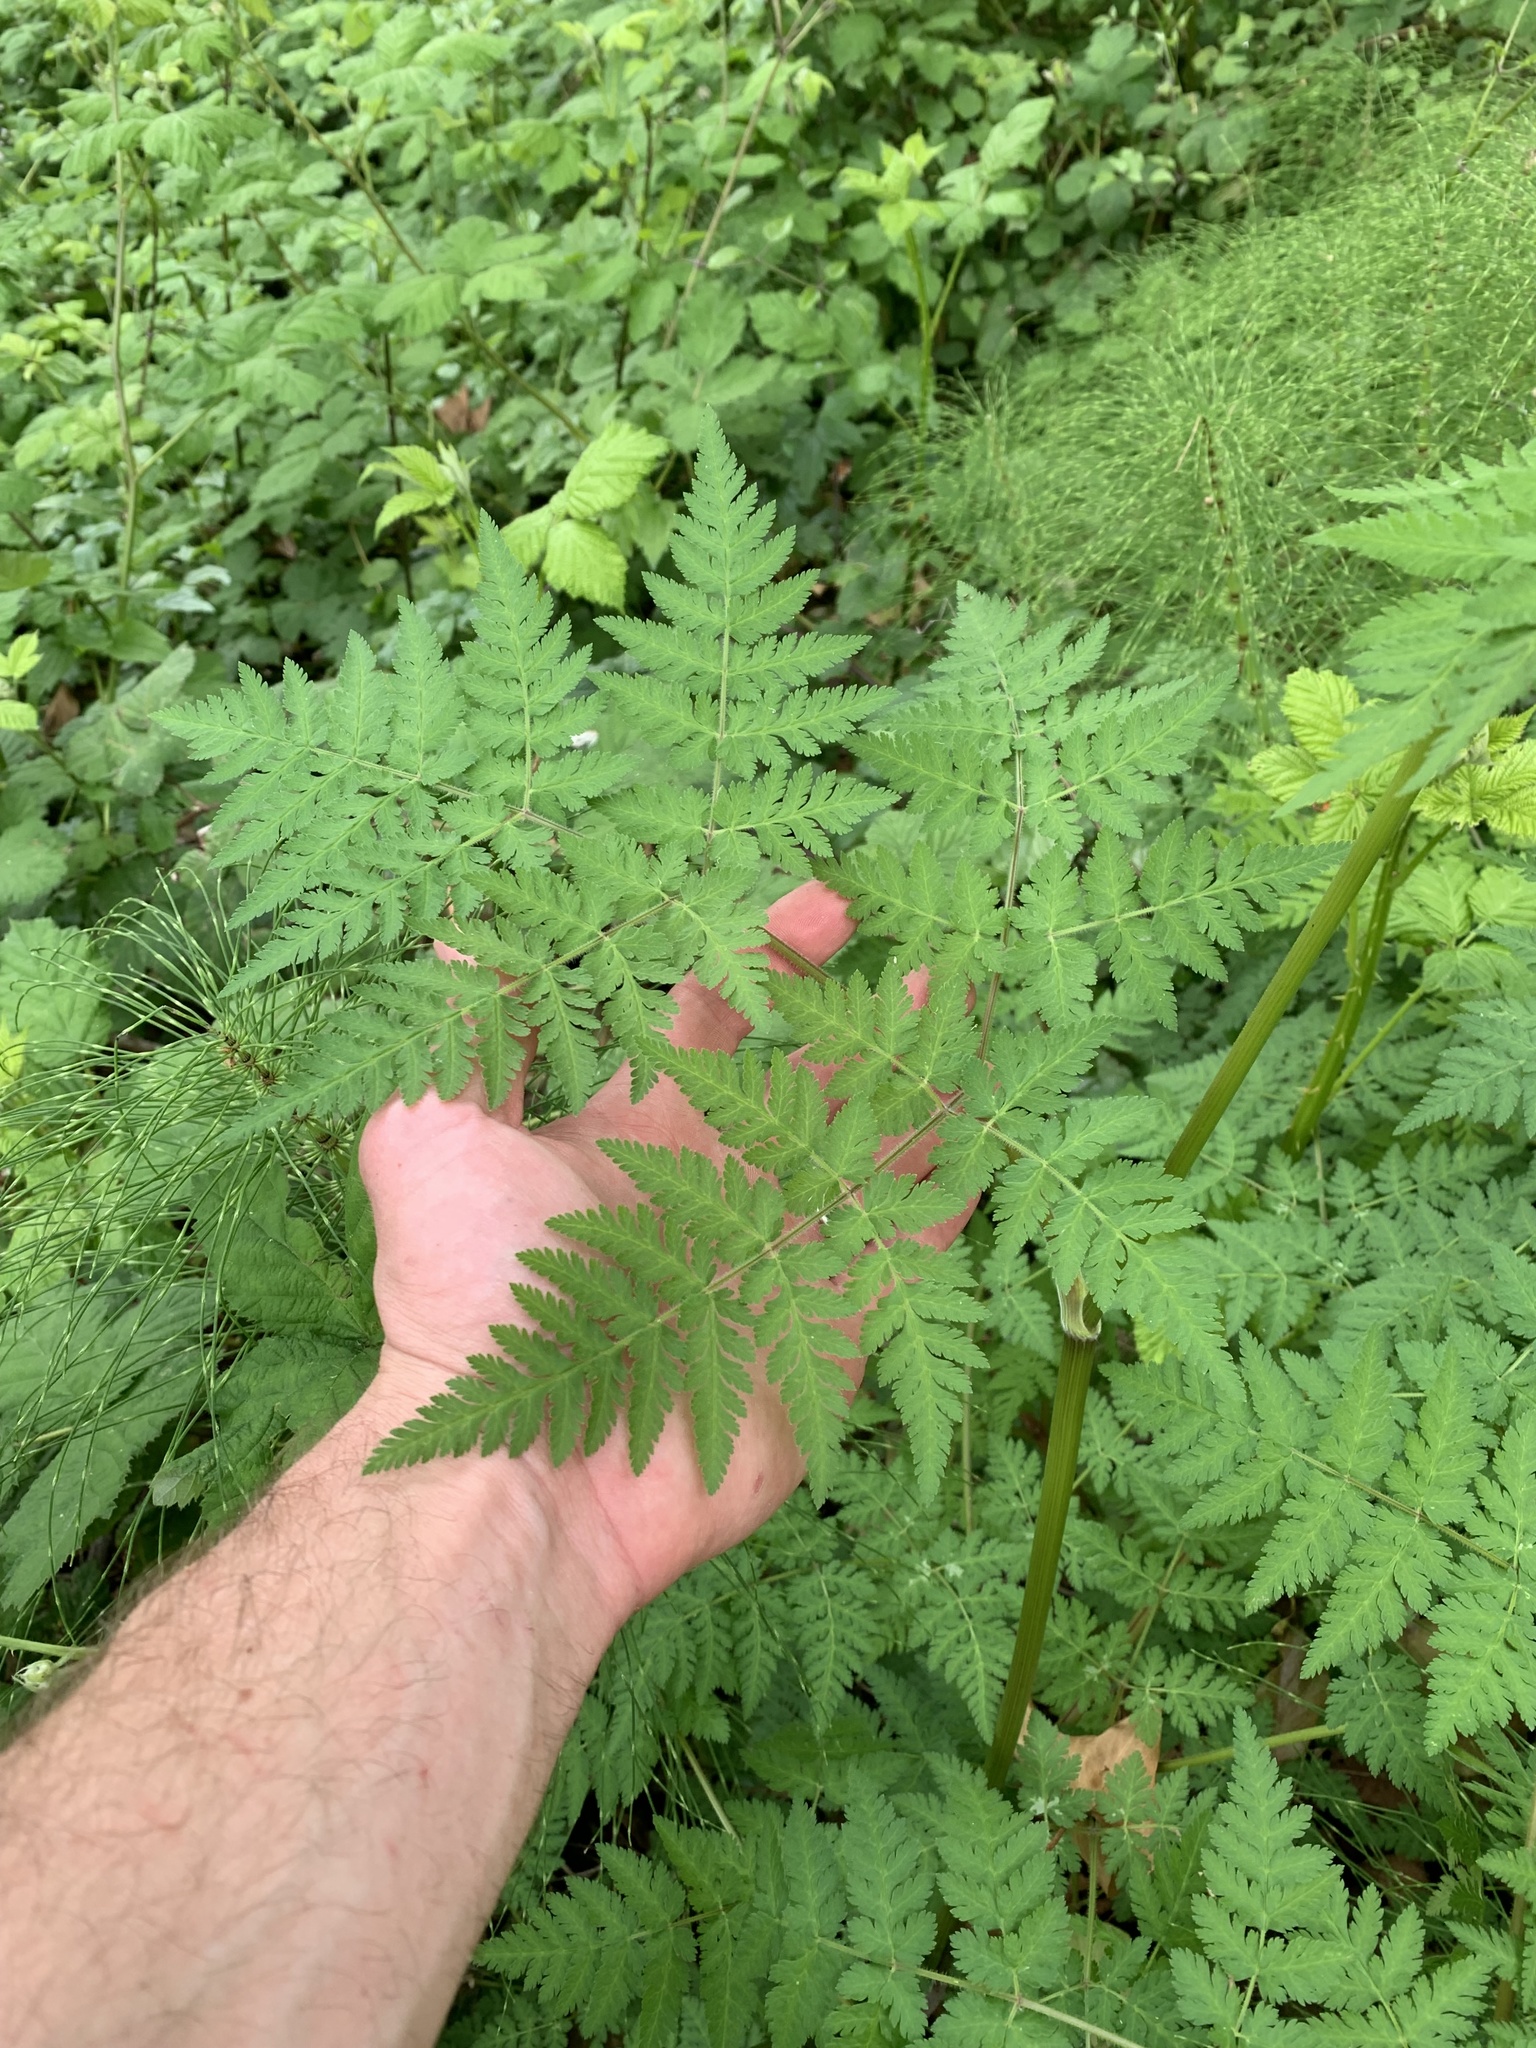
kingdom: Plantae
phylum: Tracheophyta
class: Magnoliopsida
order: Apiales
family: Apiaceae
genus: Myrrhis
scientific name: Myrrhis odorata
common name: Sweet cicely
